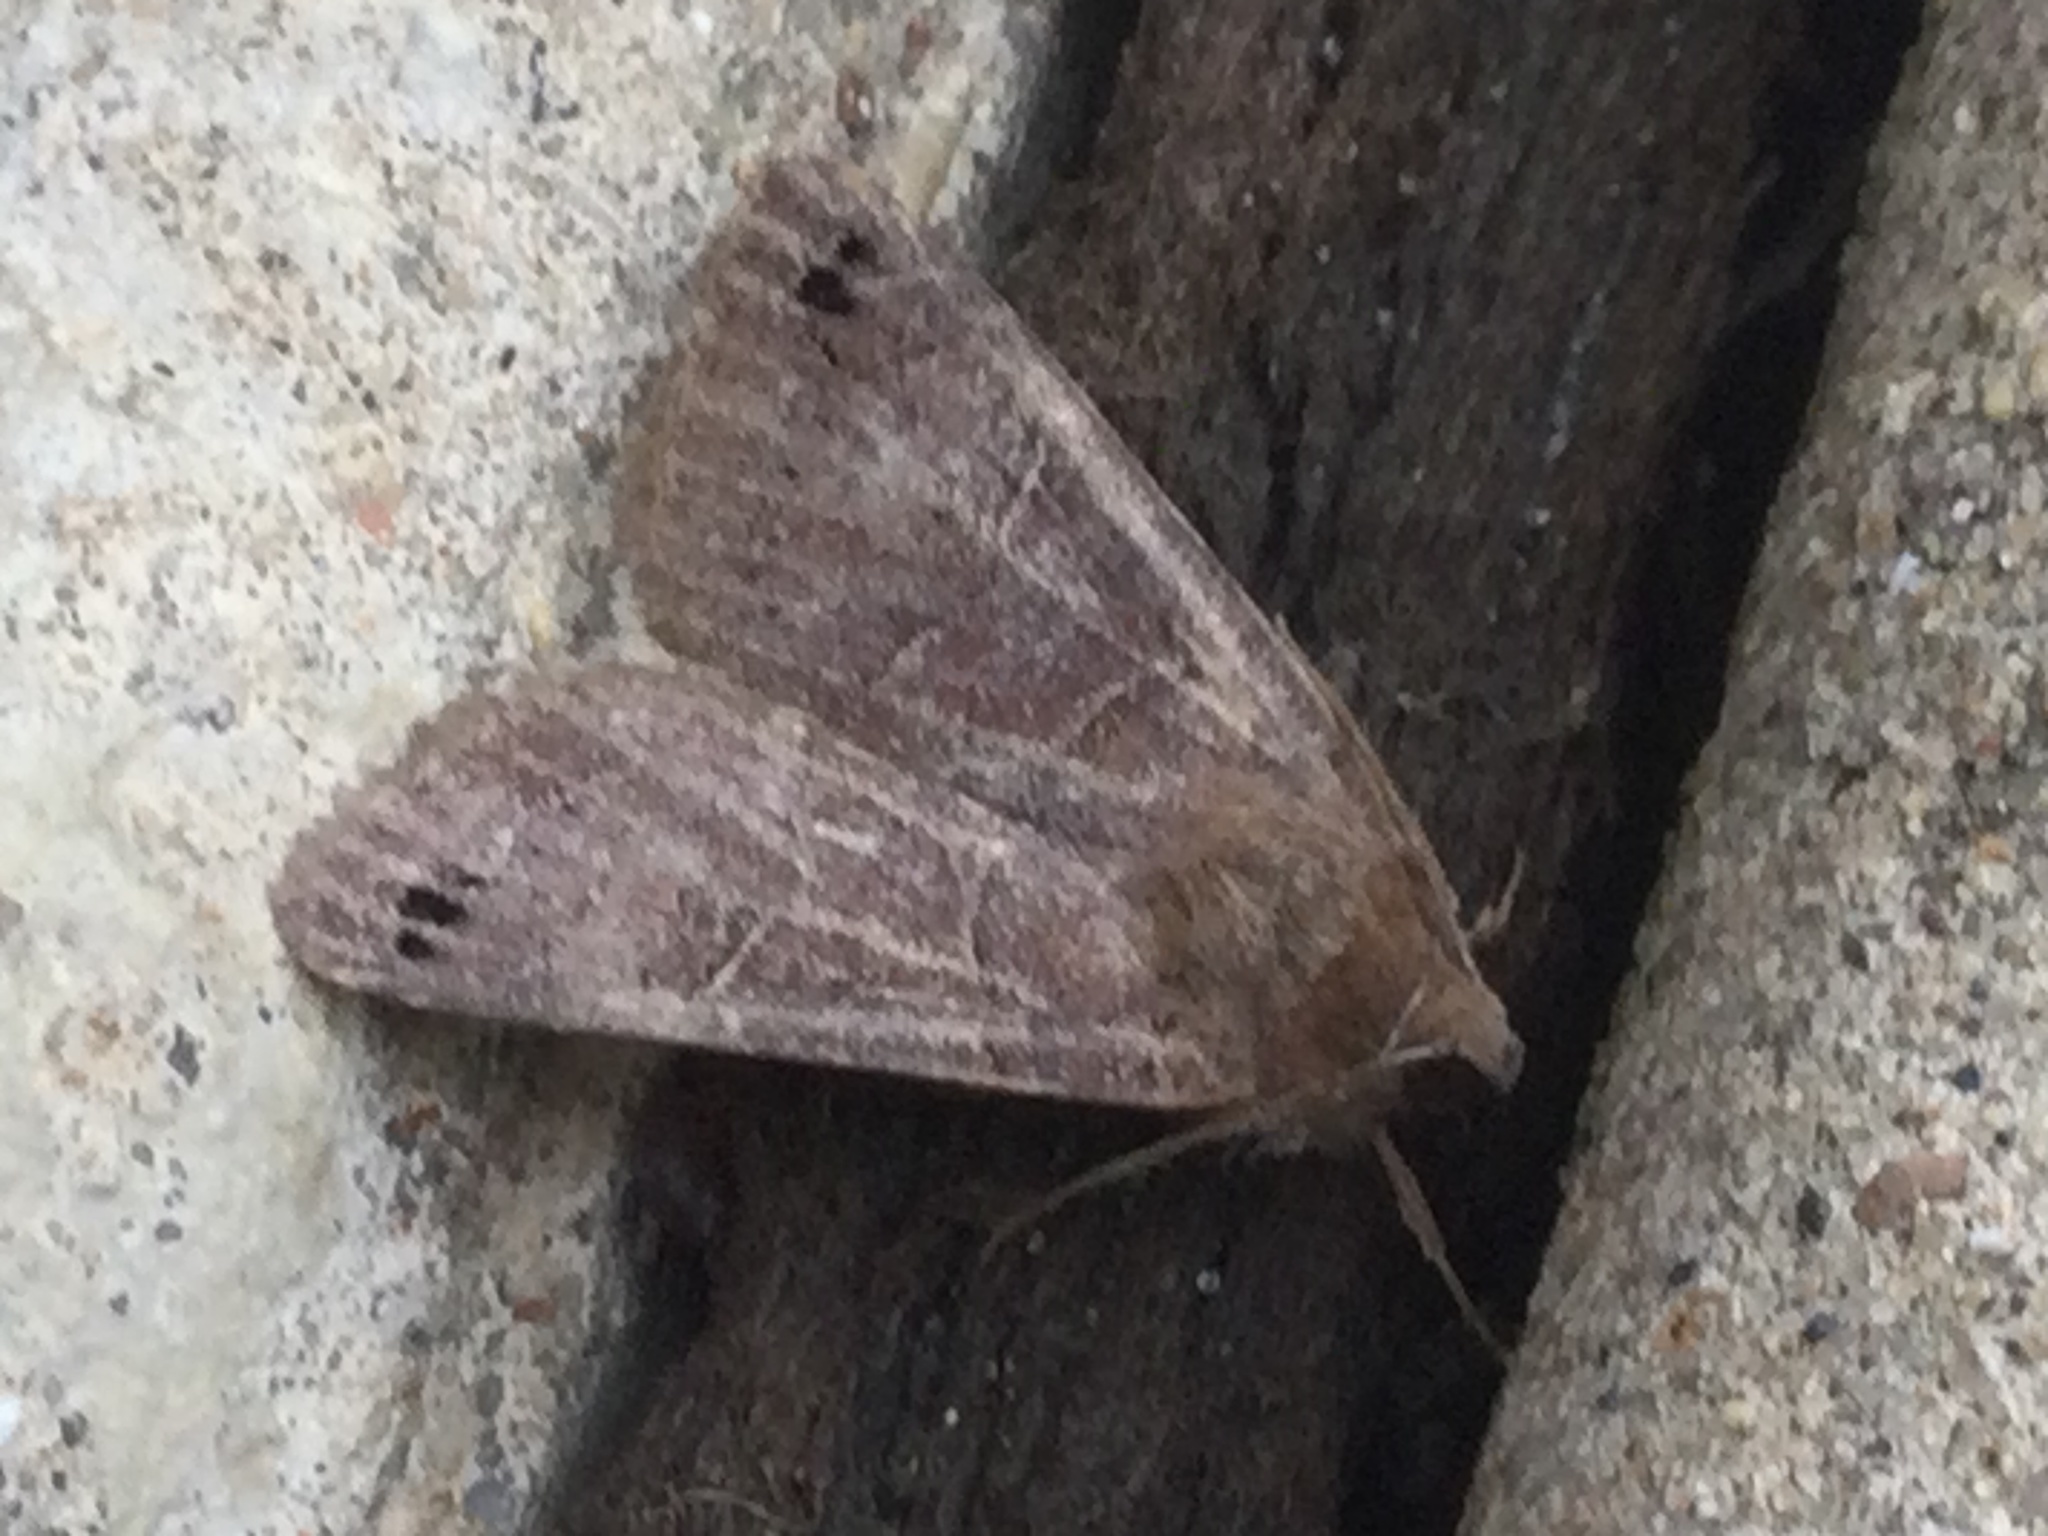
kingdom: Animalia
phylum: Arthropoda
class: Insecta
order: Lepidoptera
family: Erebidae
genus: Cissusa
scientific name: Cissusa spadix
